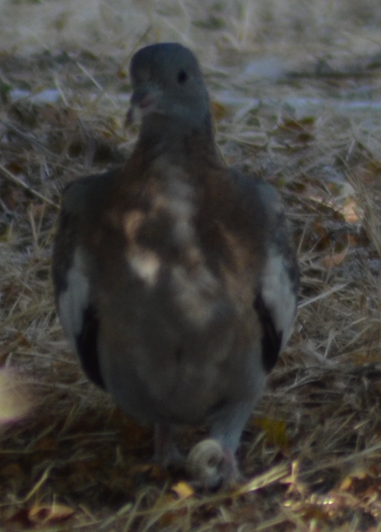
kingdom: Animalia
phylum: Chordata
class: Aves
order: Columbiformes
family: Columbidae
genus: Columba
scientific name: Columba palumbus
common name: Common wood pigeon
